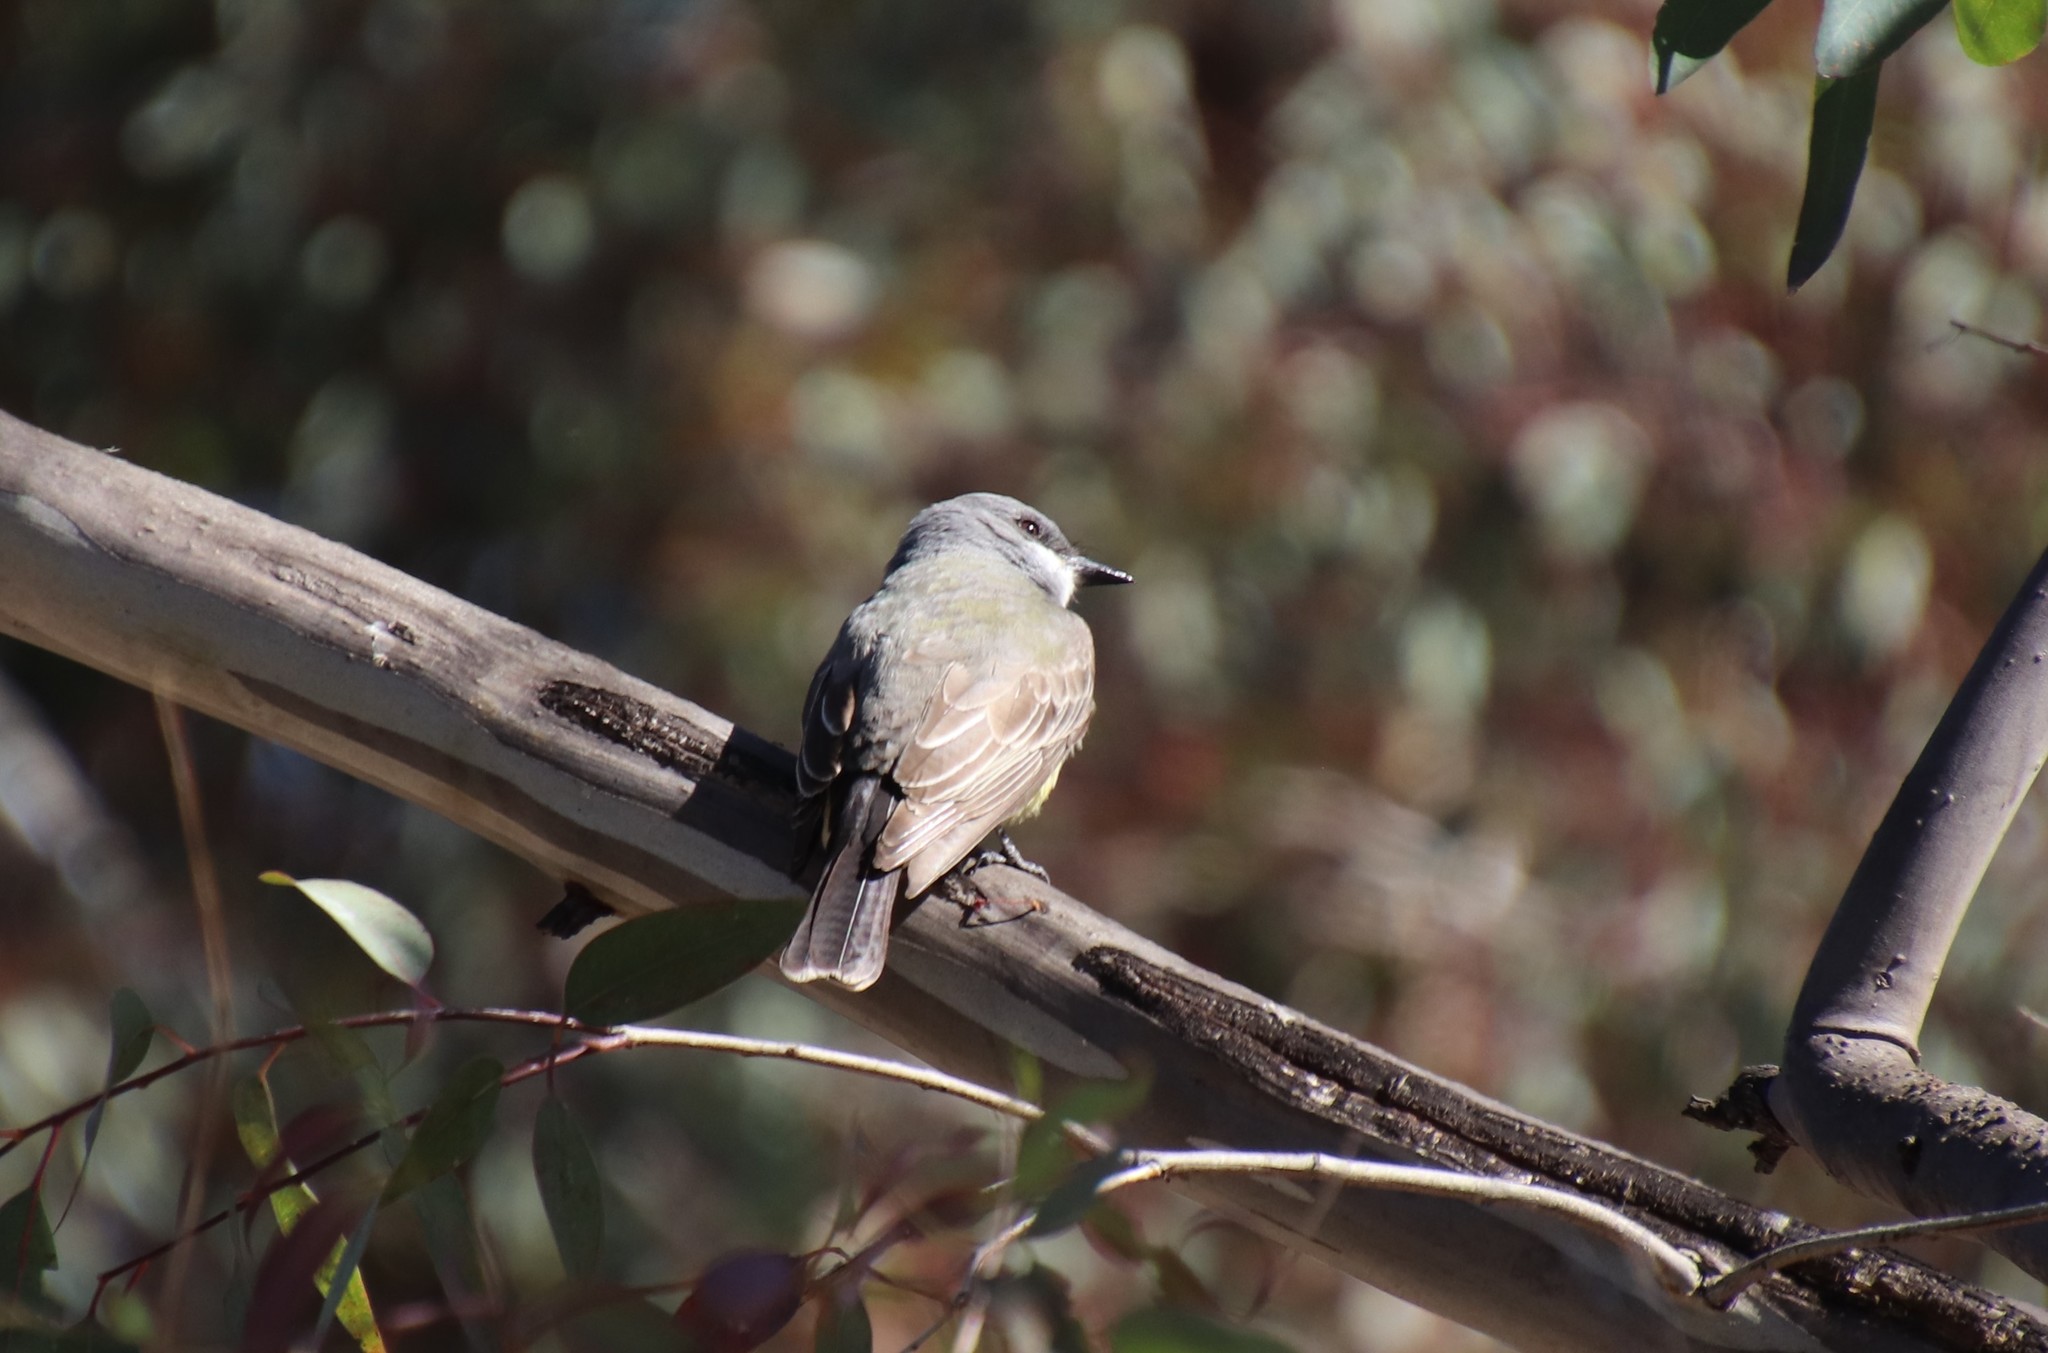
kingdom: Animalia
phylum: Chordata
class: Aves
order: Passeriformes
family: Tyrannidae
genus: Tyrannus
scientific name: Tyrannus vociferans
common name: Cassin's kingbird
